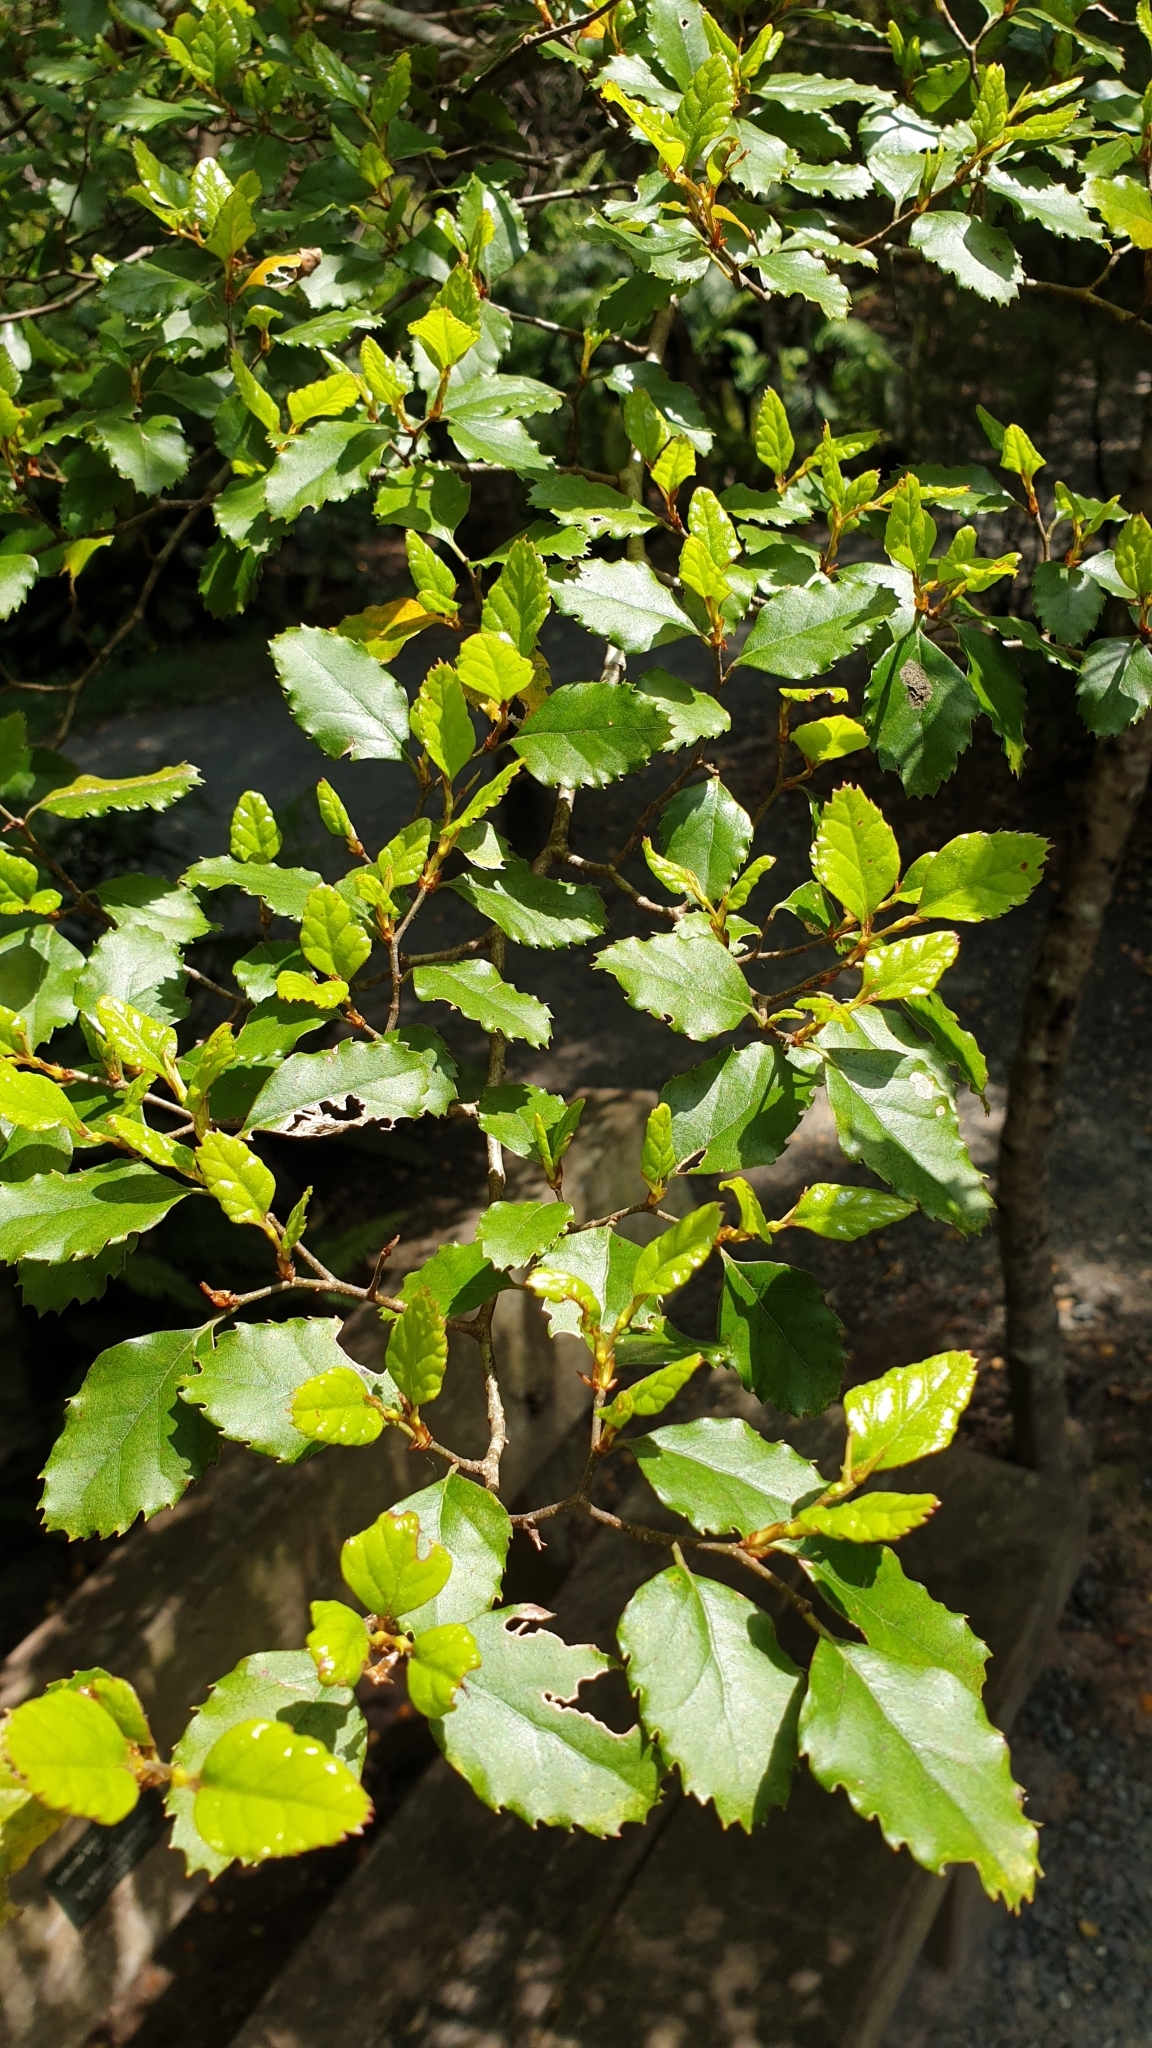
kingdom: Plantae
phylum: Tracheophyta
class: Magnoliopsida
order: Fagales
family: Nothofagaceae
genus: Nothofagus
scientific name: Nothofagus truncata
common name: Hard beech
